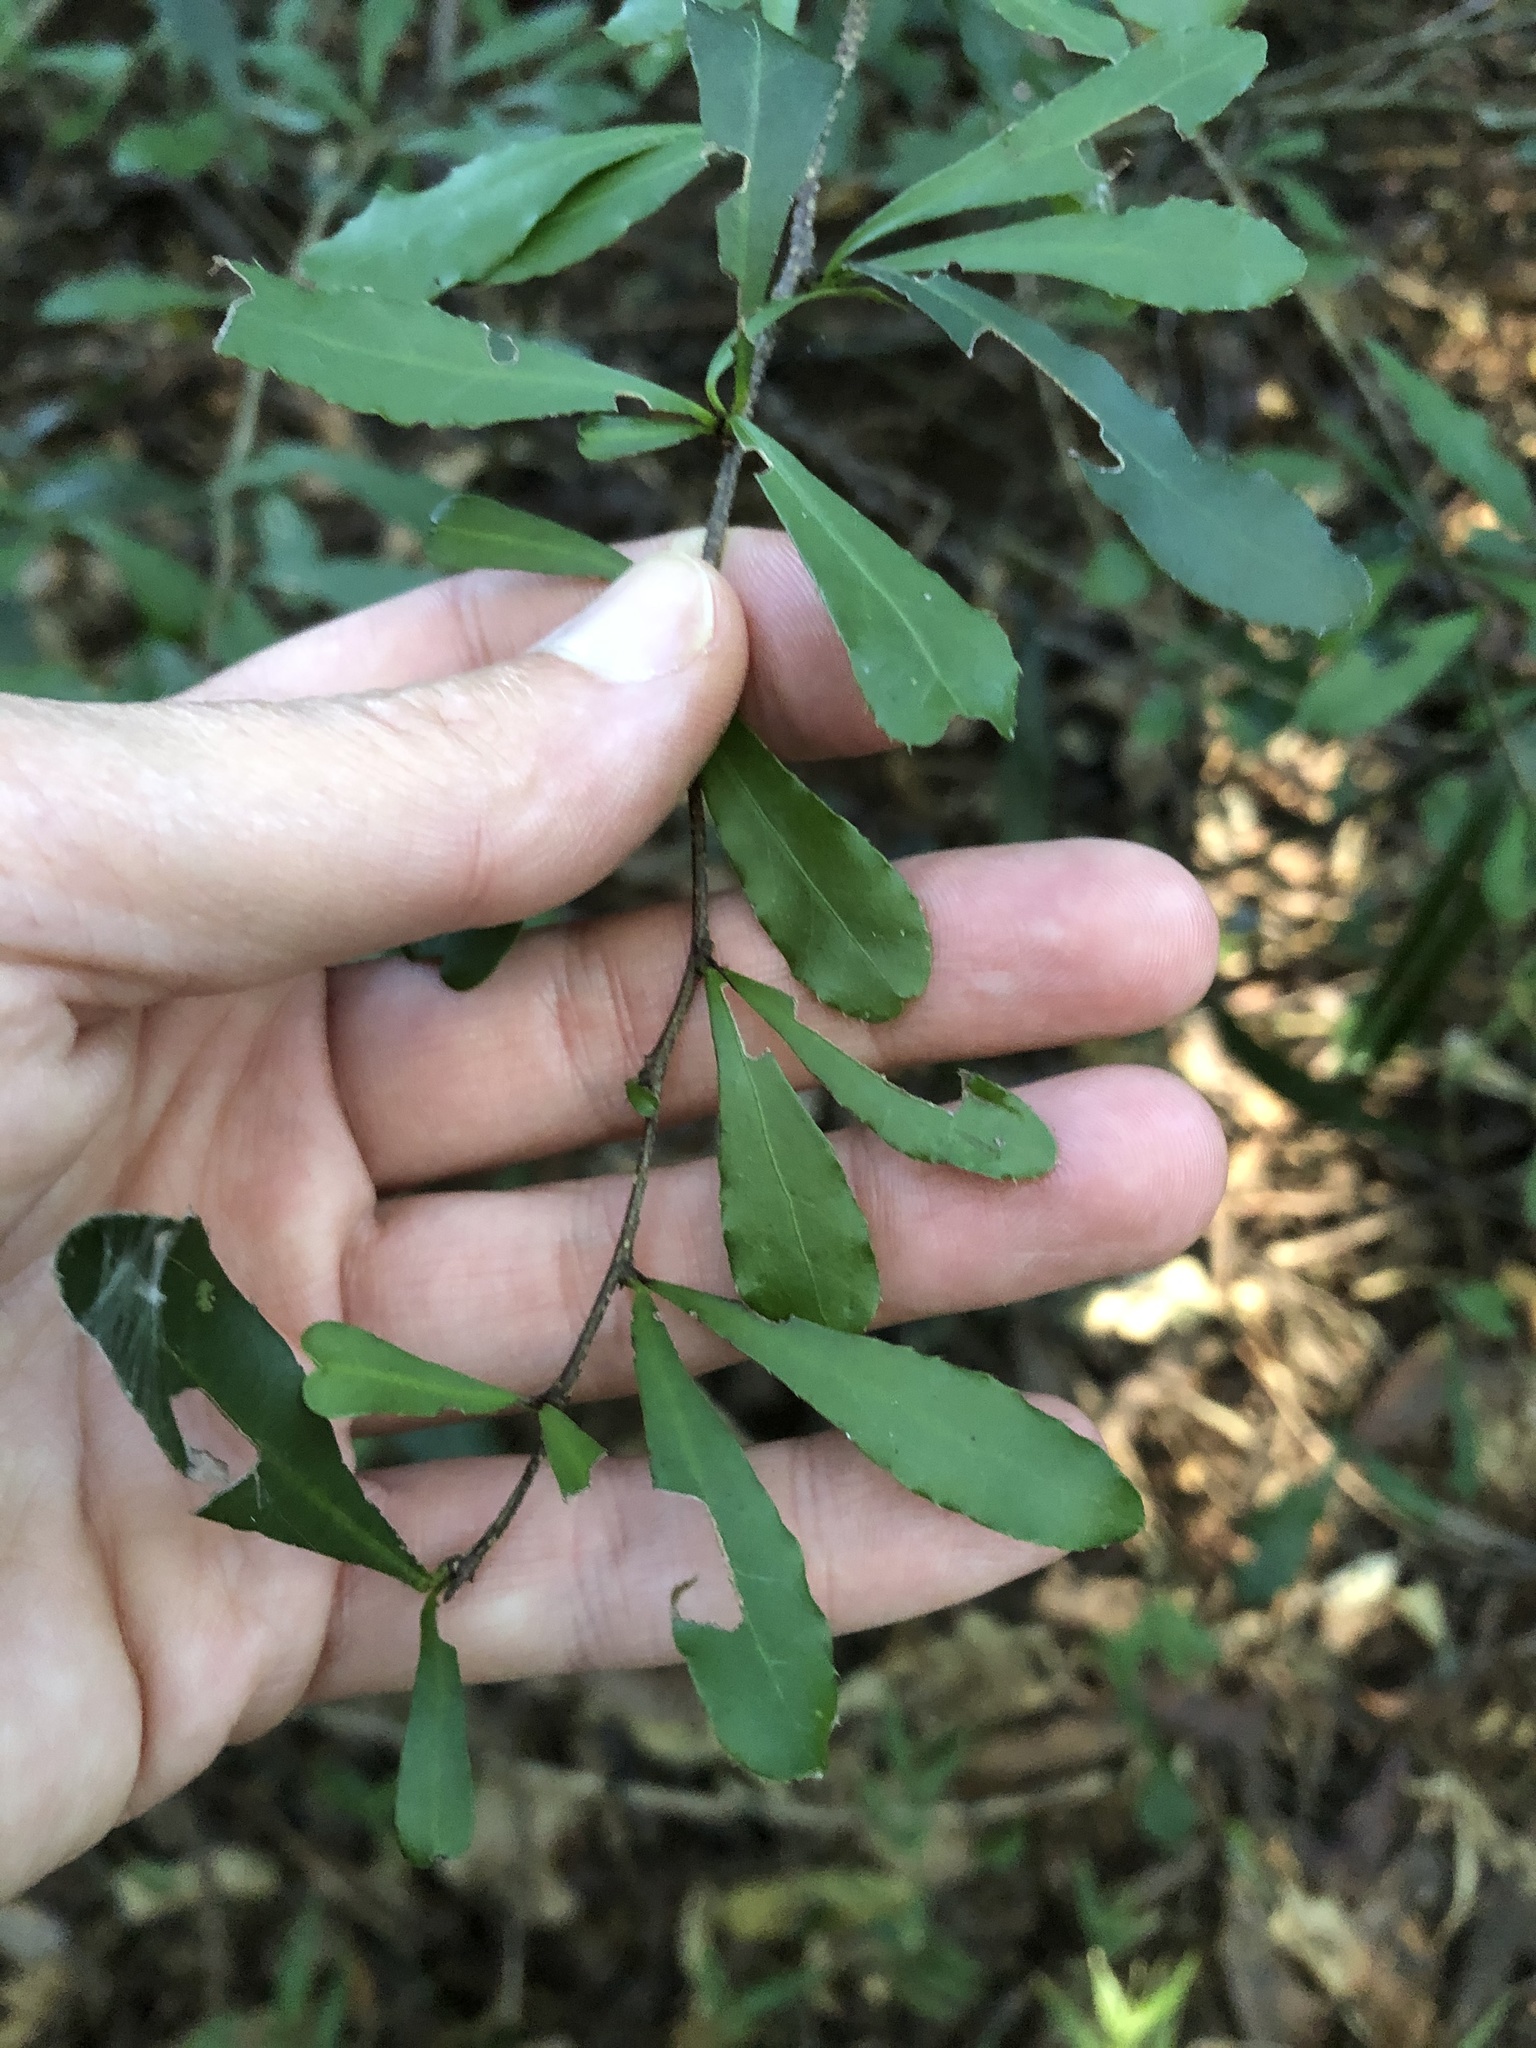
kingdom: Plantae
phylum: Tracheophyta
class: Magnoliopsida
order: Celastrales
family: Celastraceae
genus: Putterlickia
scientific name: Putterlickia verrucosa
